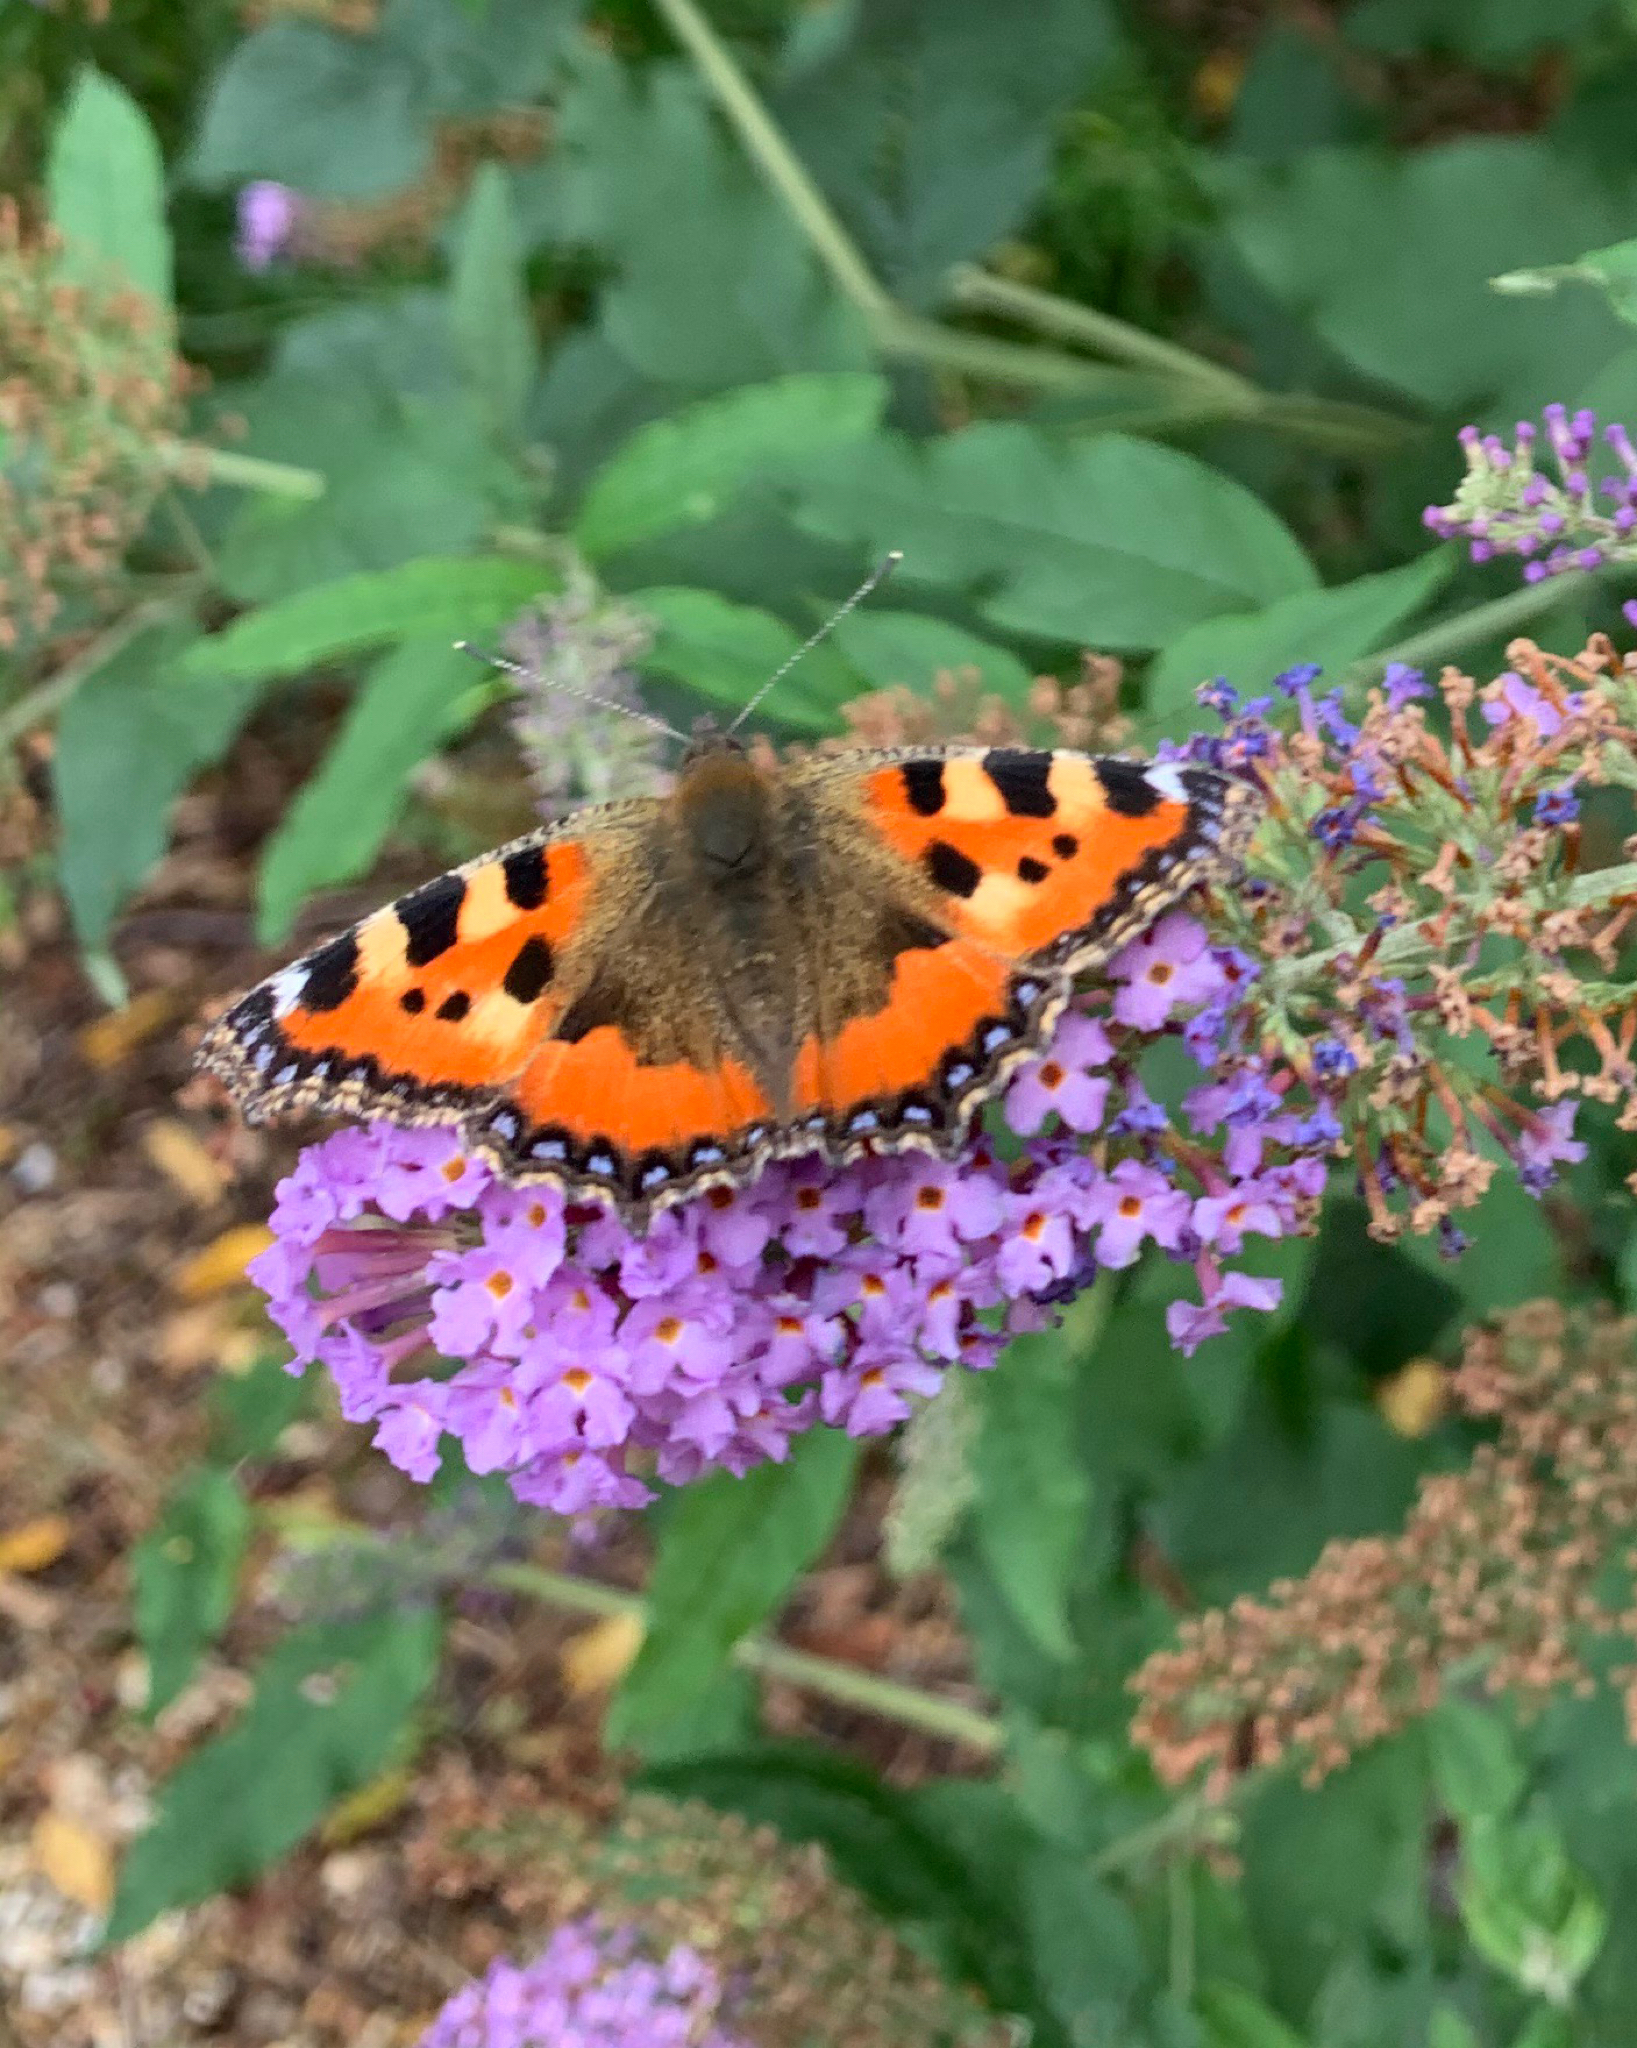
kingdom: Animalia
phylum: Arthropoda
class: Insecta
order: Lepidoptera
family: Nymphalidae
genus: Aglais
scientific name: Aglais urticae
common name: Small tortoiseshell
